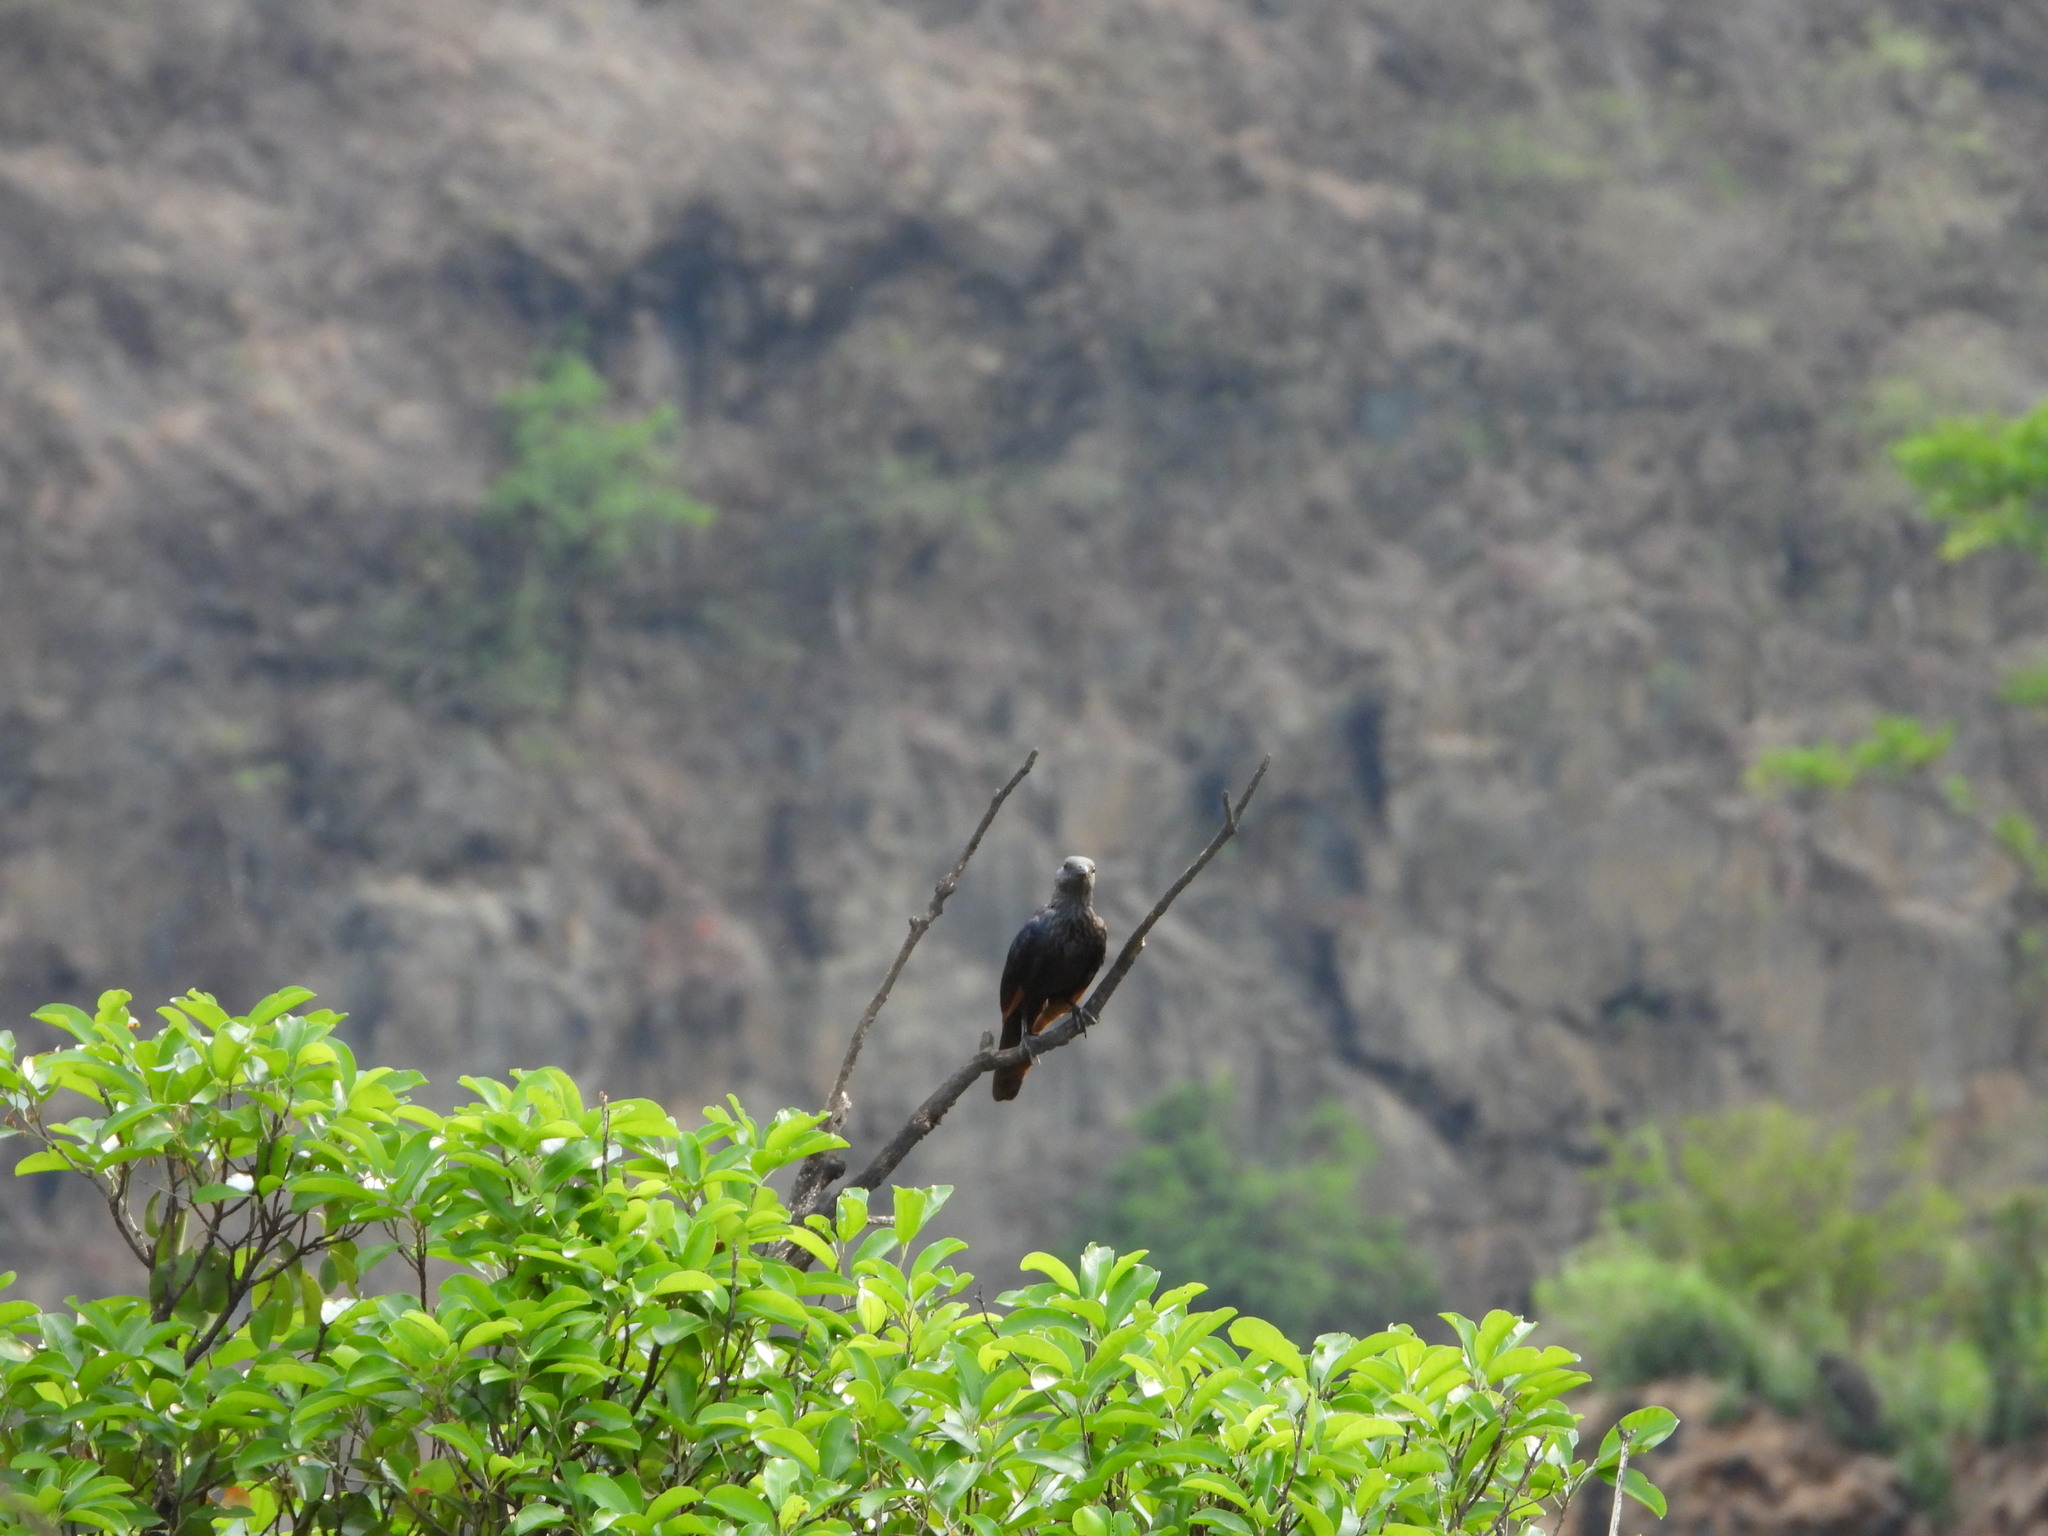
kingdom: Animalia
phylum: Chordata
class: Aves
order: Passeriformes
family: Sturnidae
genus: Onychognathus
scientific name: Onychognathus morio
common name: Red-winged starling
